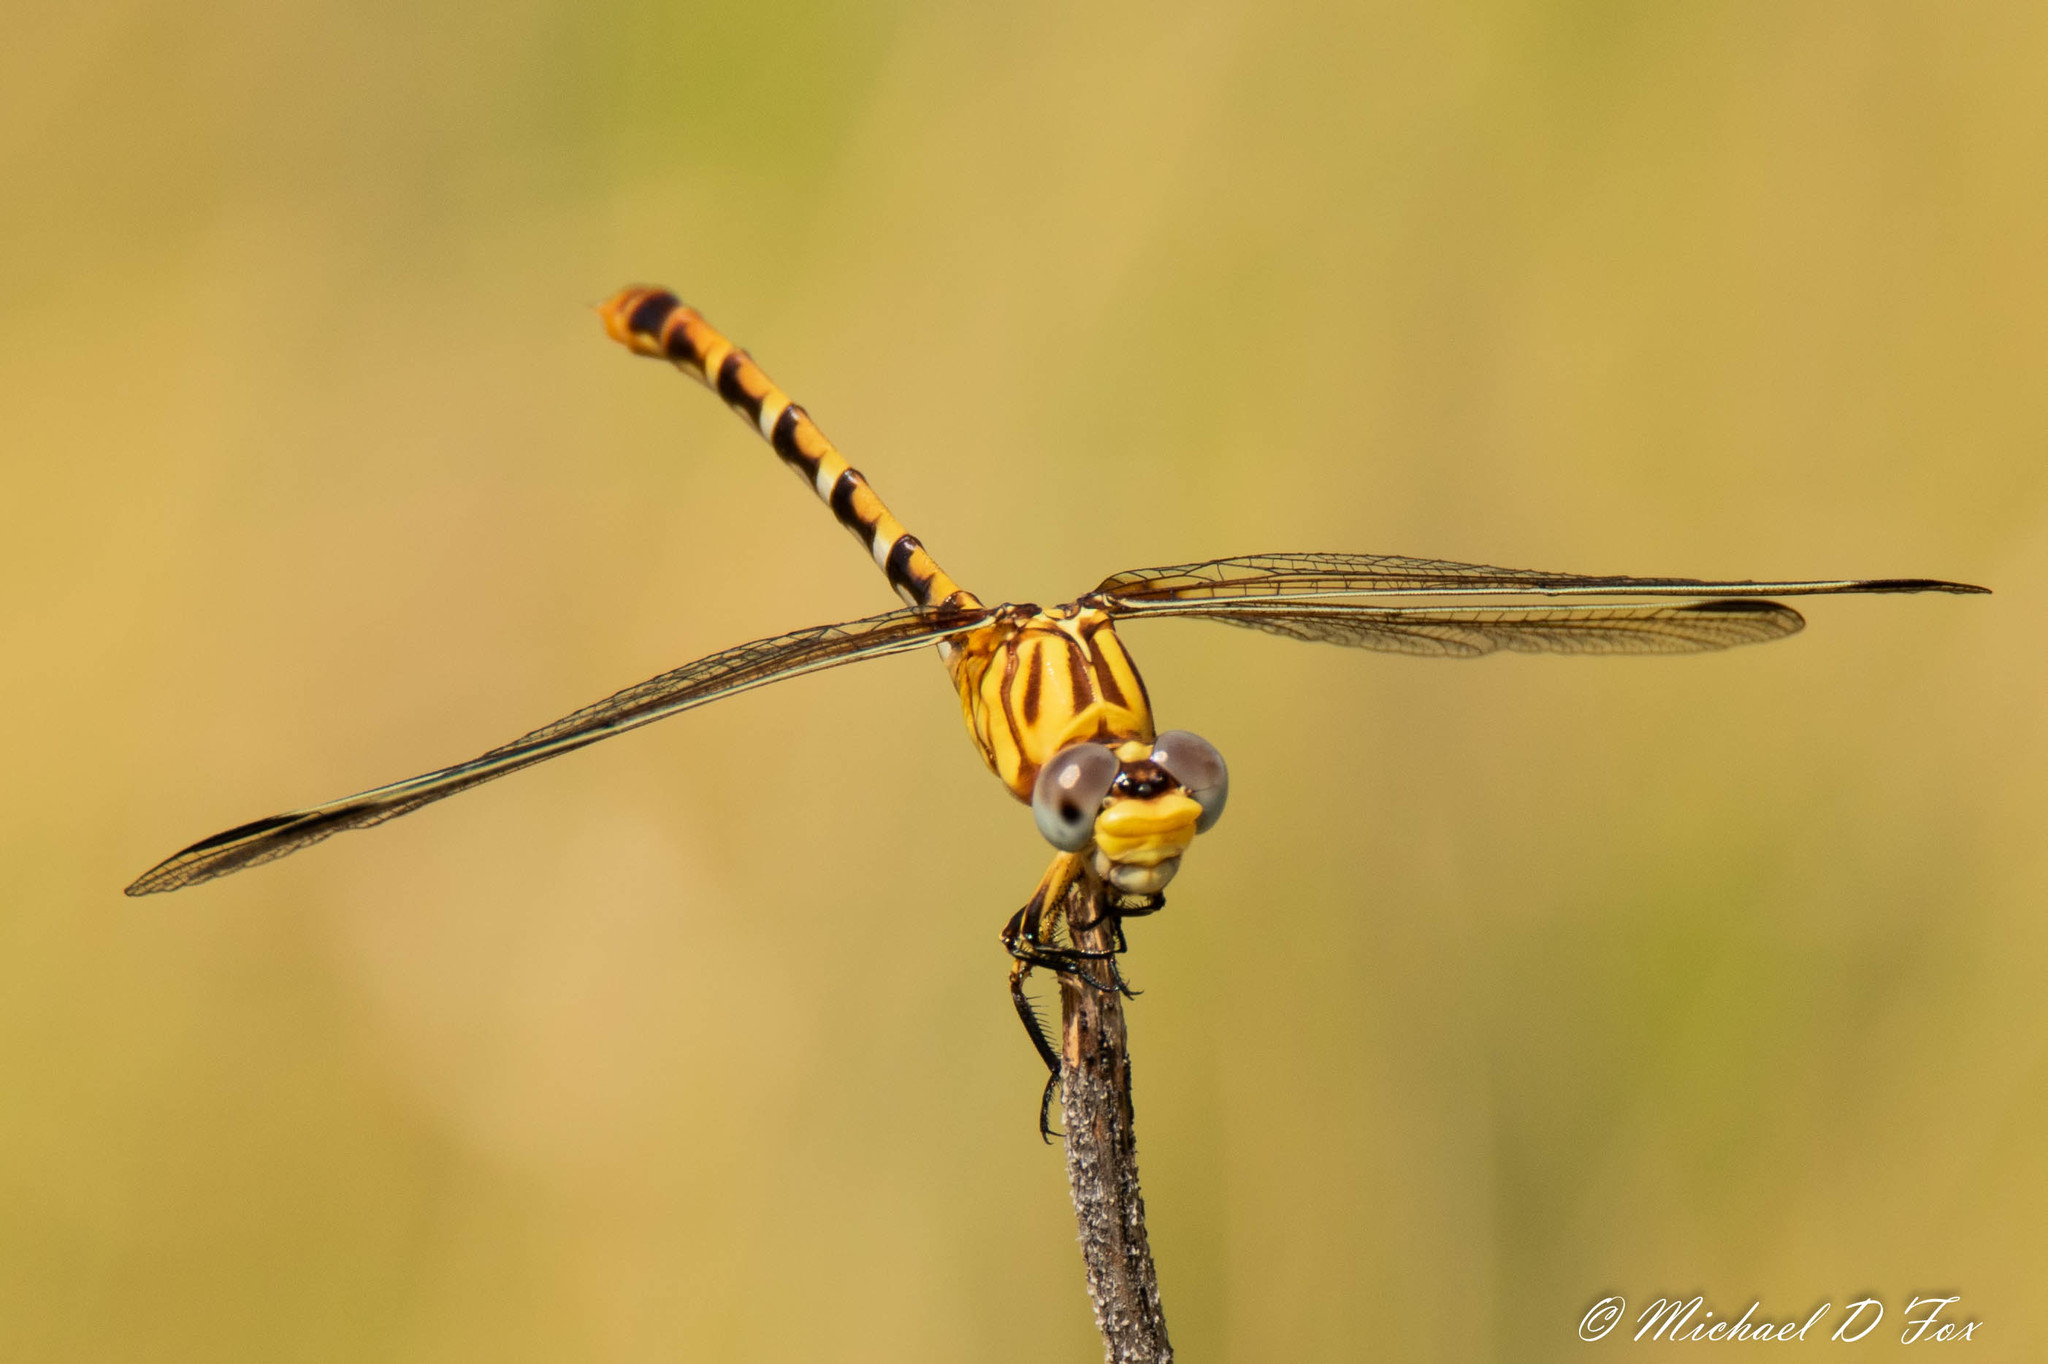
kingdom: Animalia
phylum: Arthropoda
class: Insecta
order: Odonata
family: Gomphidae
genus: Erpetogomphus
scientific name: Erpetogomphus designatus
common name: Eastern ringtail
